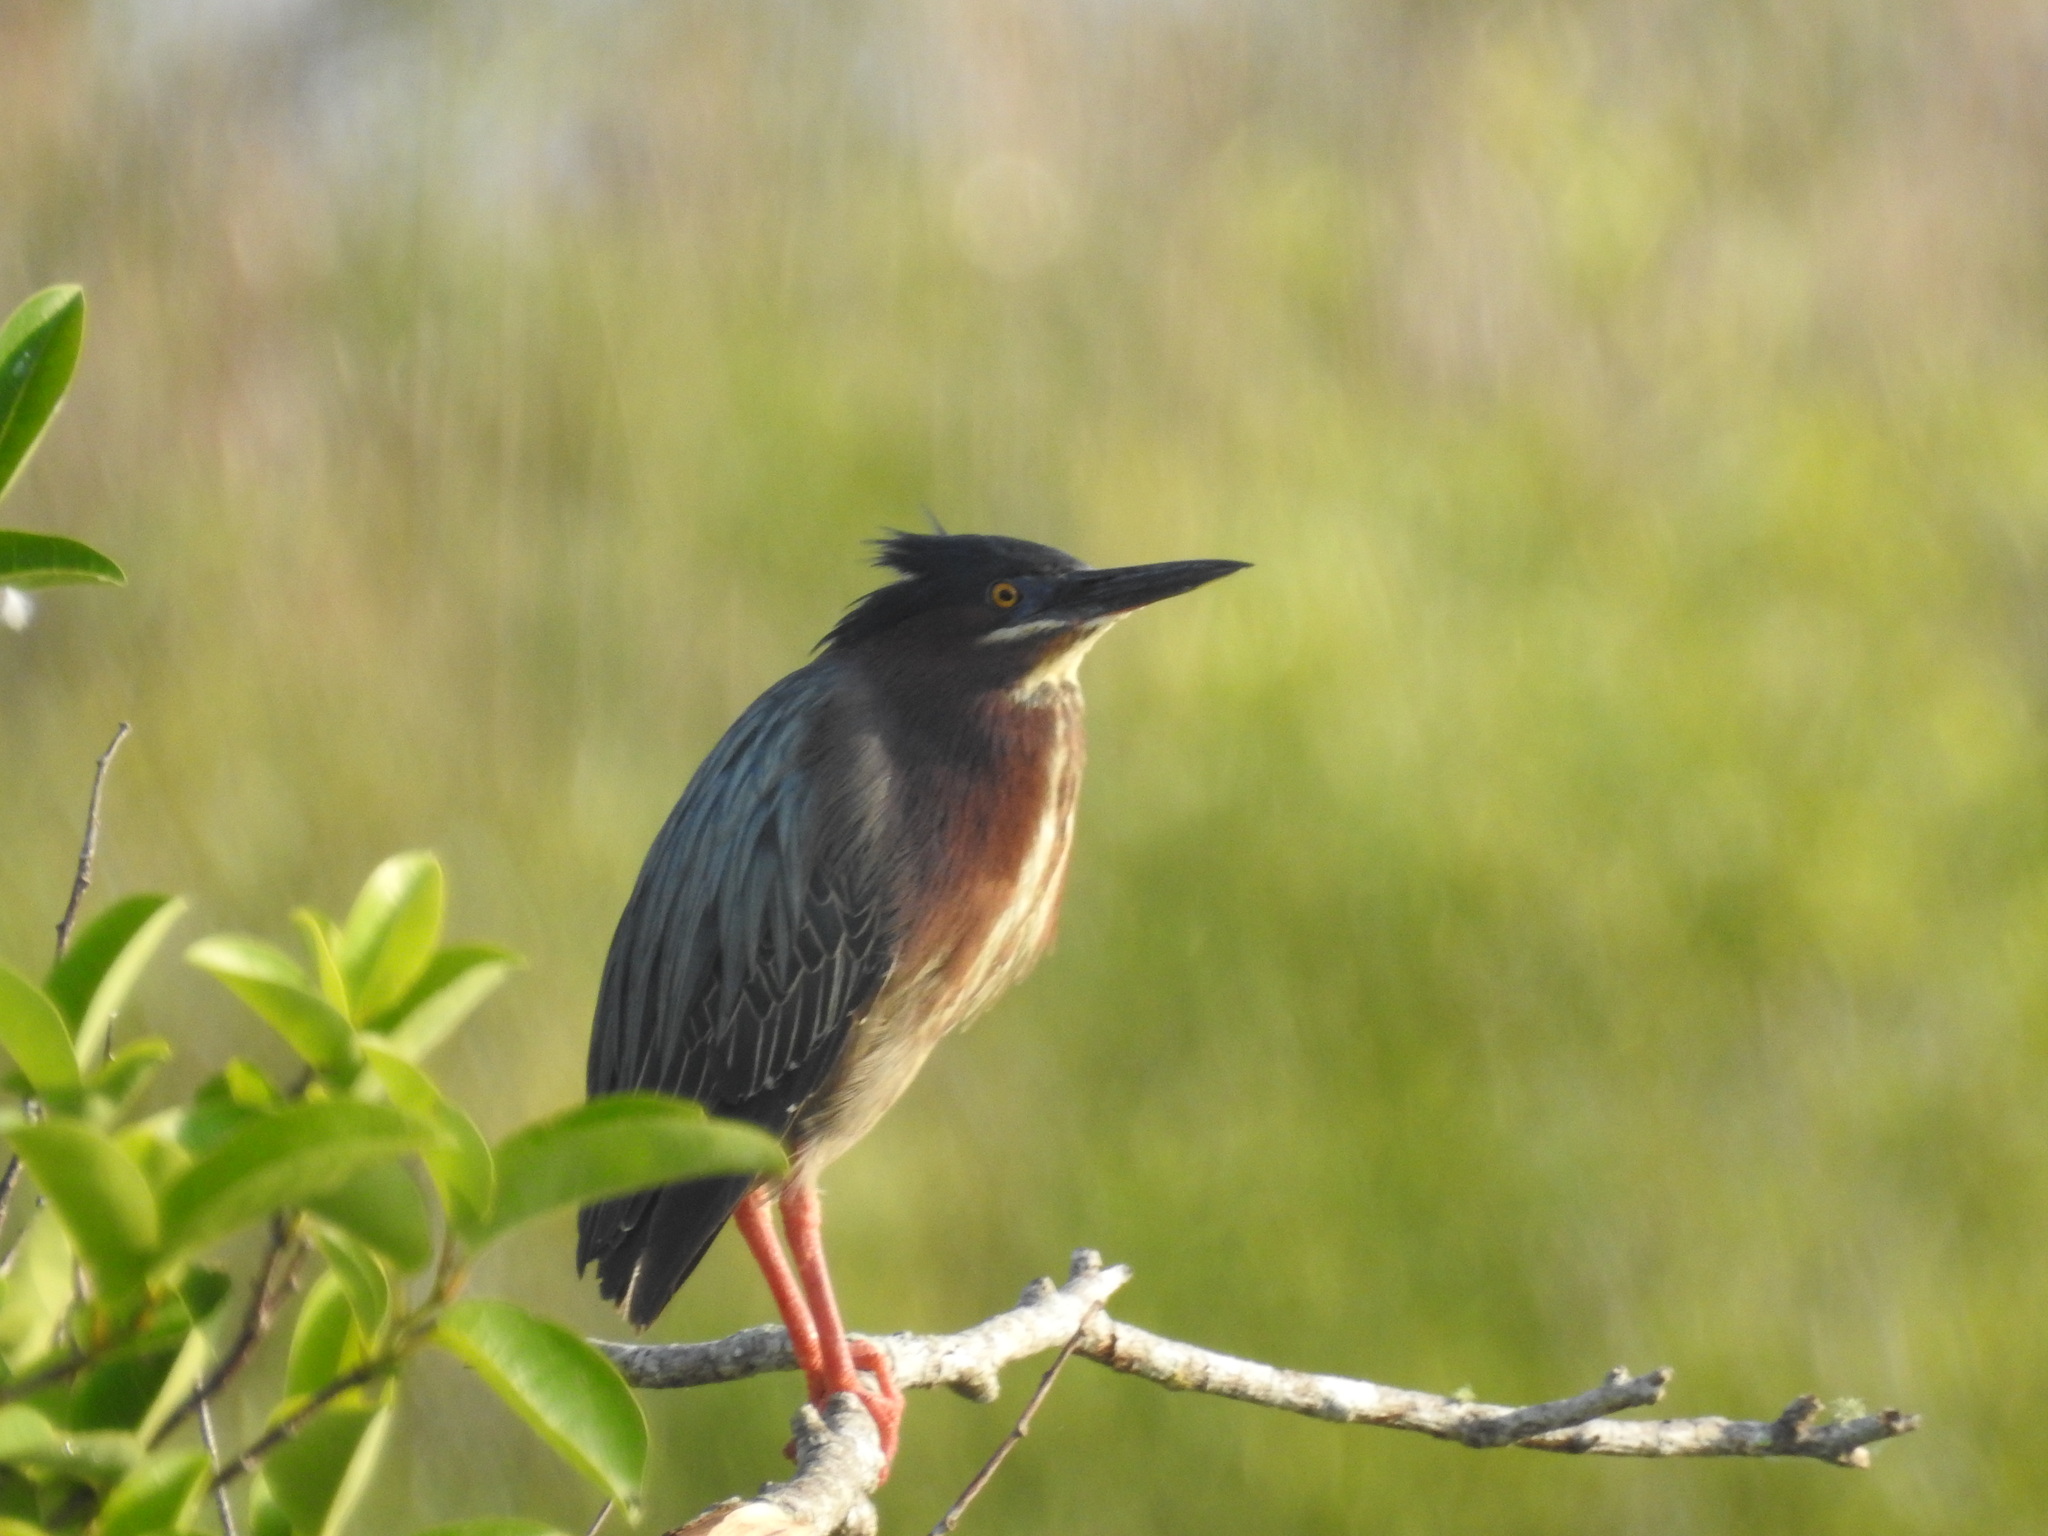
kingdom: Animalia
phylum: Chordata
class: Aves
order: Pelecaniformes
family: Ardeidae
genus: Butorides
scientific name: Butorides virescens
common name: Green heron
